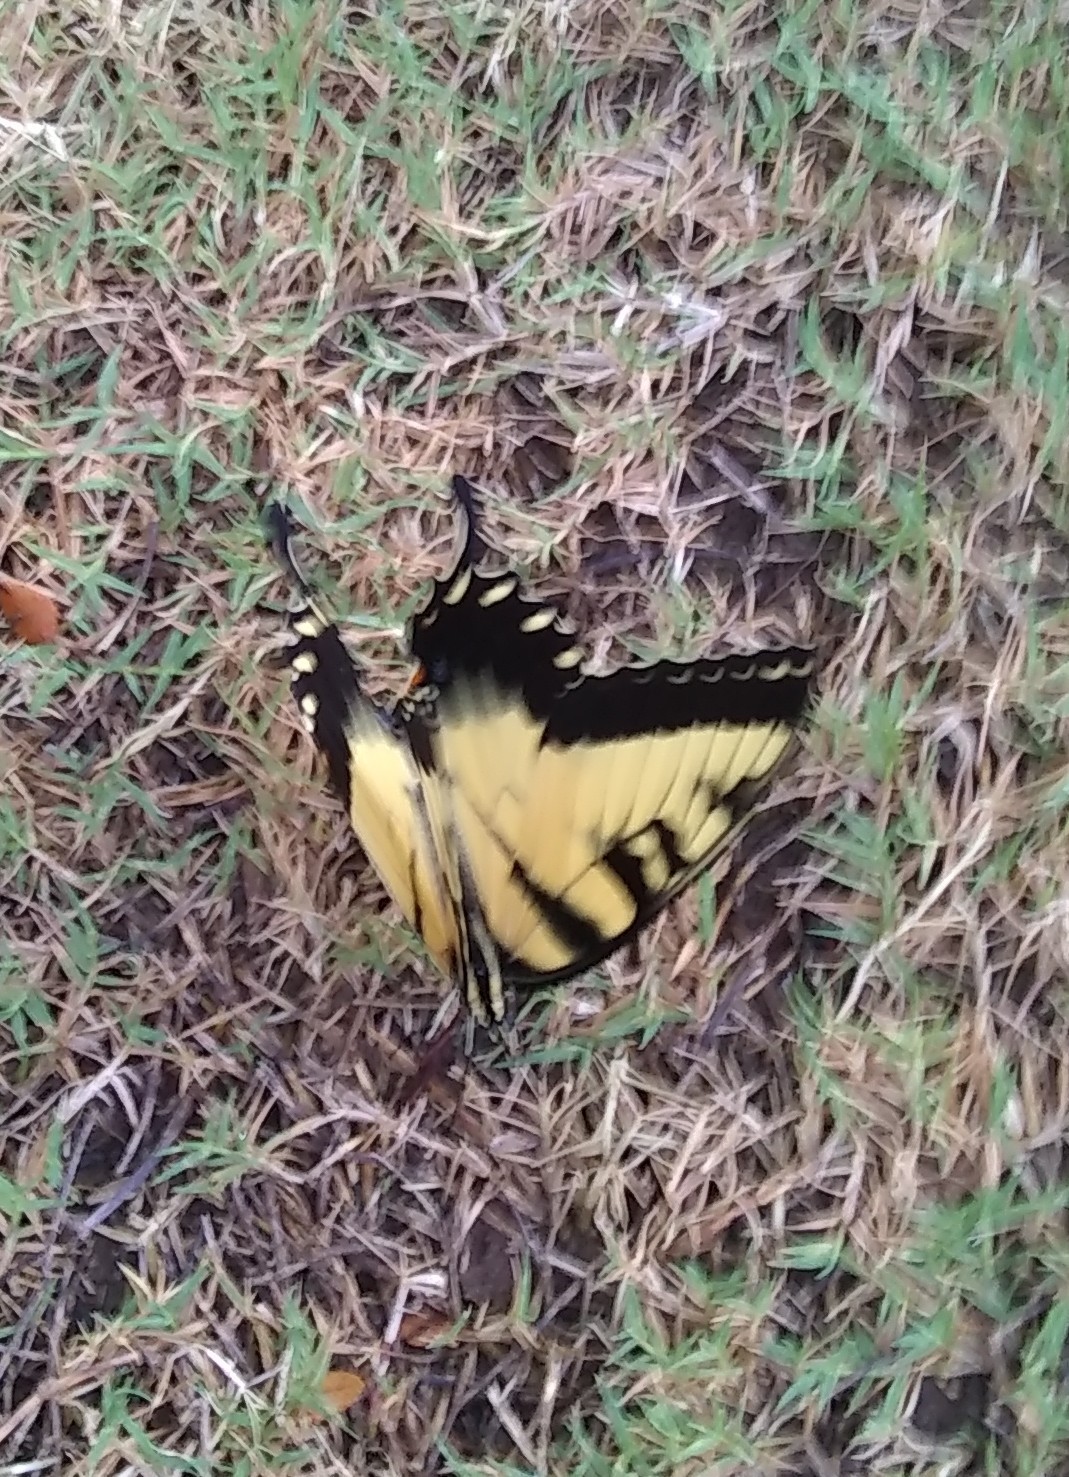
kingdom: Animalia
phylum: Arthropoda
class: Insecta
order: Lepidoptera
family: Papilionidae
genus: Papilio
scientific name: Papilio glaucus
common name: Tiger swallowtail
